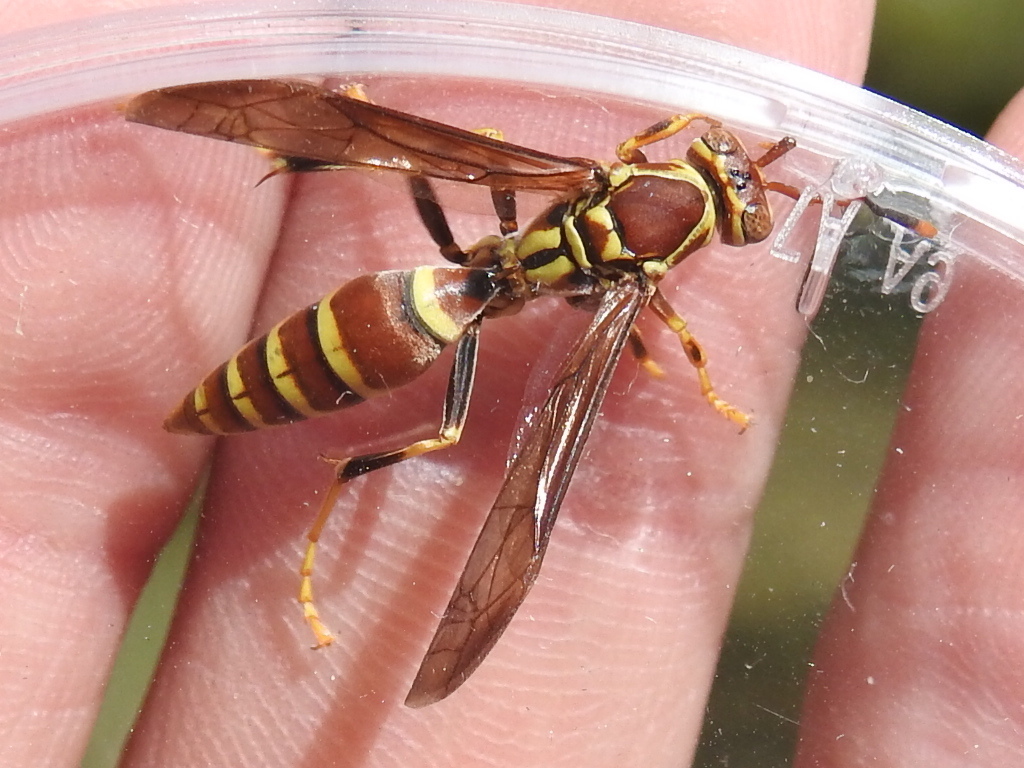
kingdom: Animalia
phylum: Arthropoda
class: Insecta
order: Hymenoptera
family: Eumenidae
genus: Polistes
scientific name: Polistes exclamans
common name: Paper wasp
